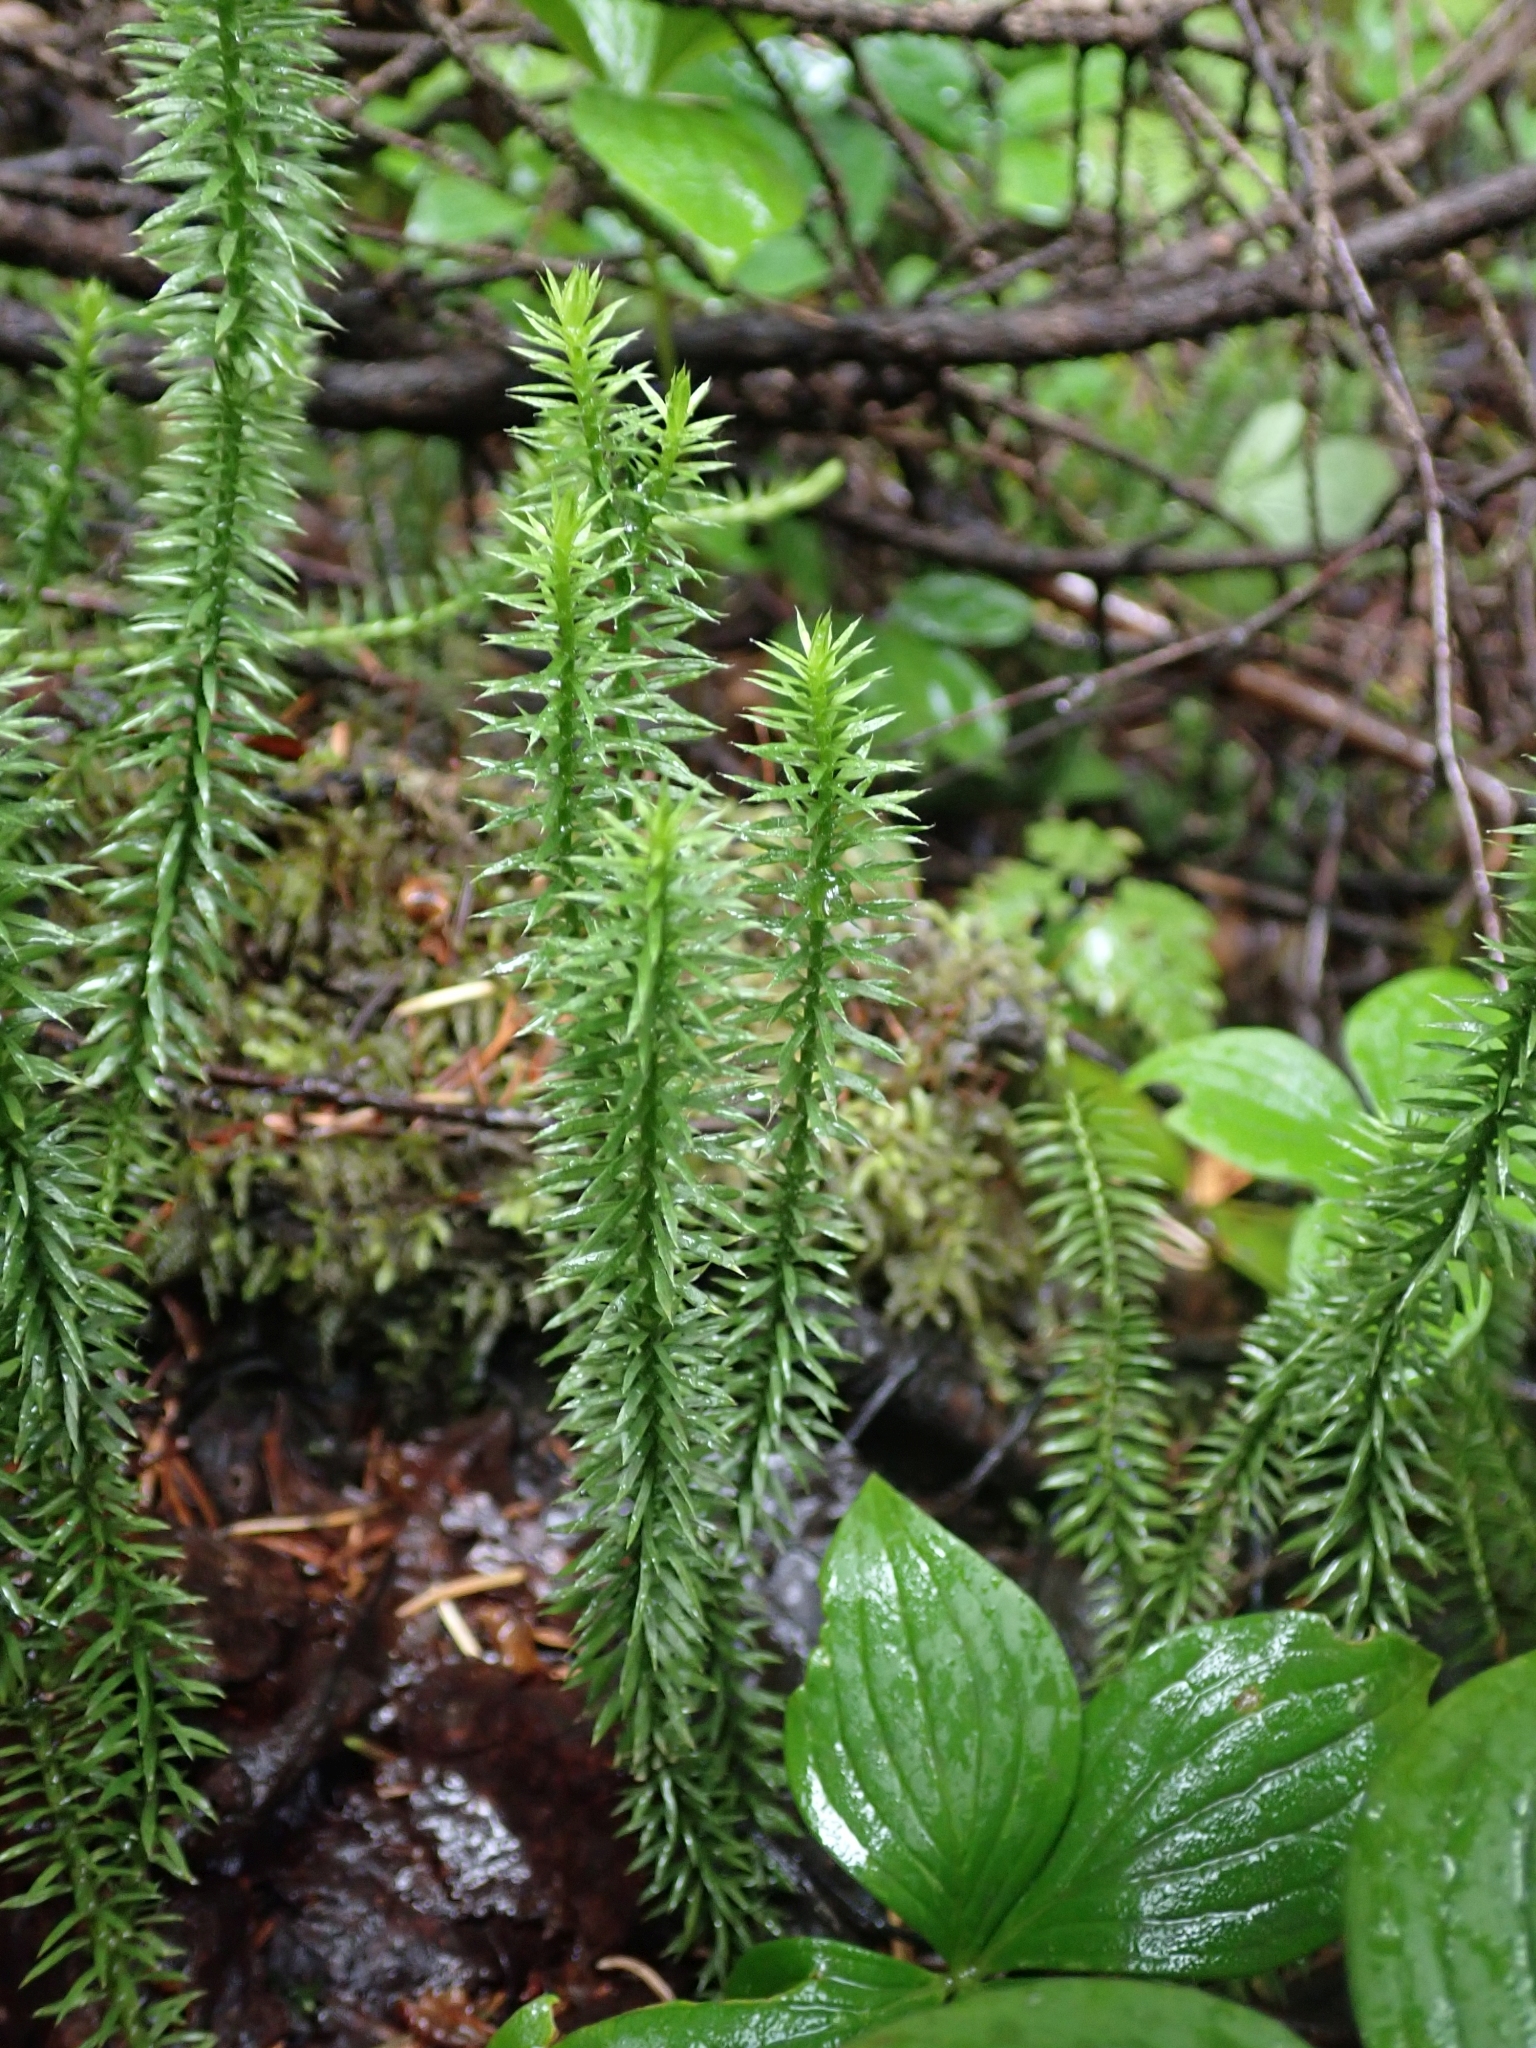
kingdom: Plantae
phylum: Tracheophyta
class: Lycopodiopsida
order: Lycopodiales
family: Lycopodiaceae
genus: Spinulum
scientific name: Spinulum annotinum
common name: Interrupted club-moss
